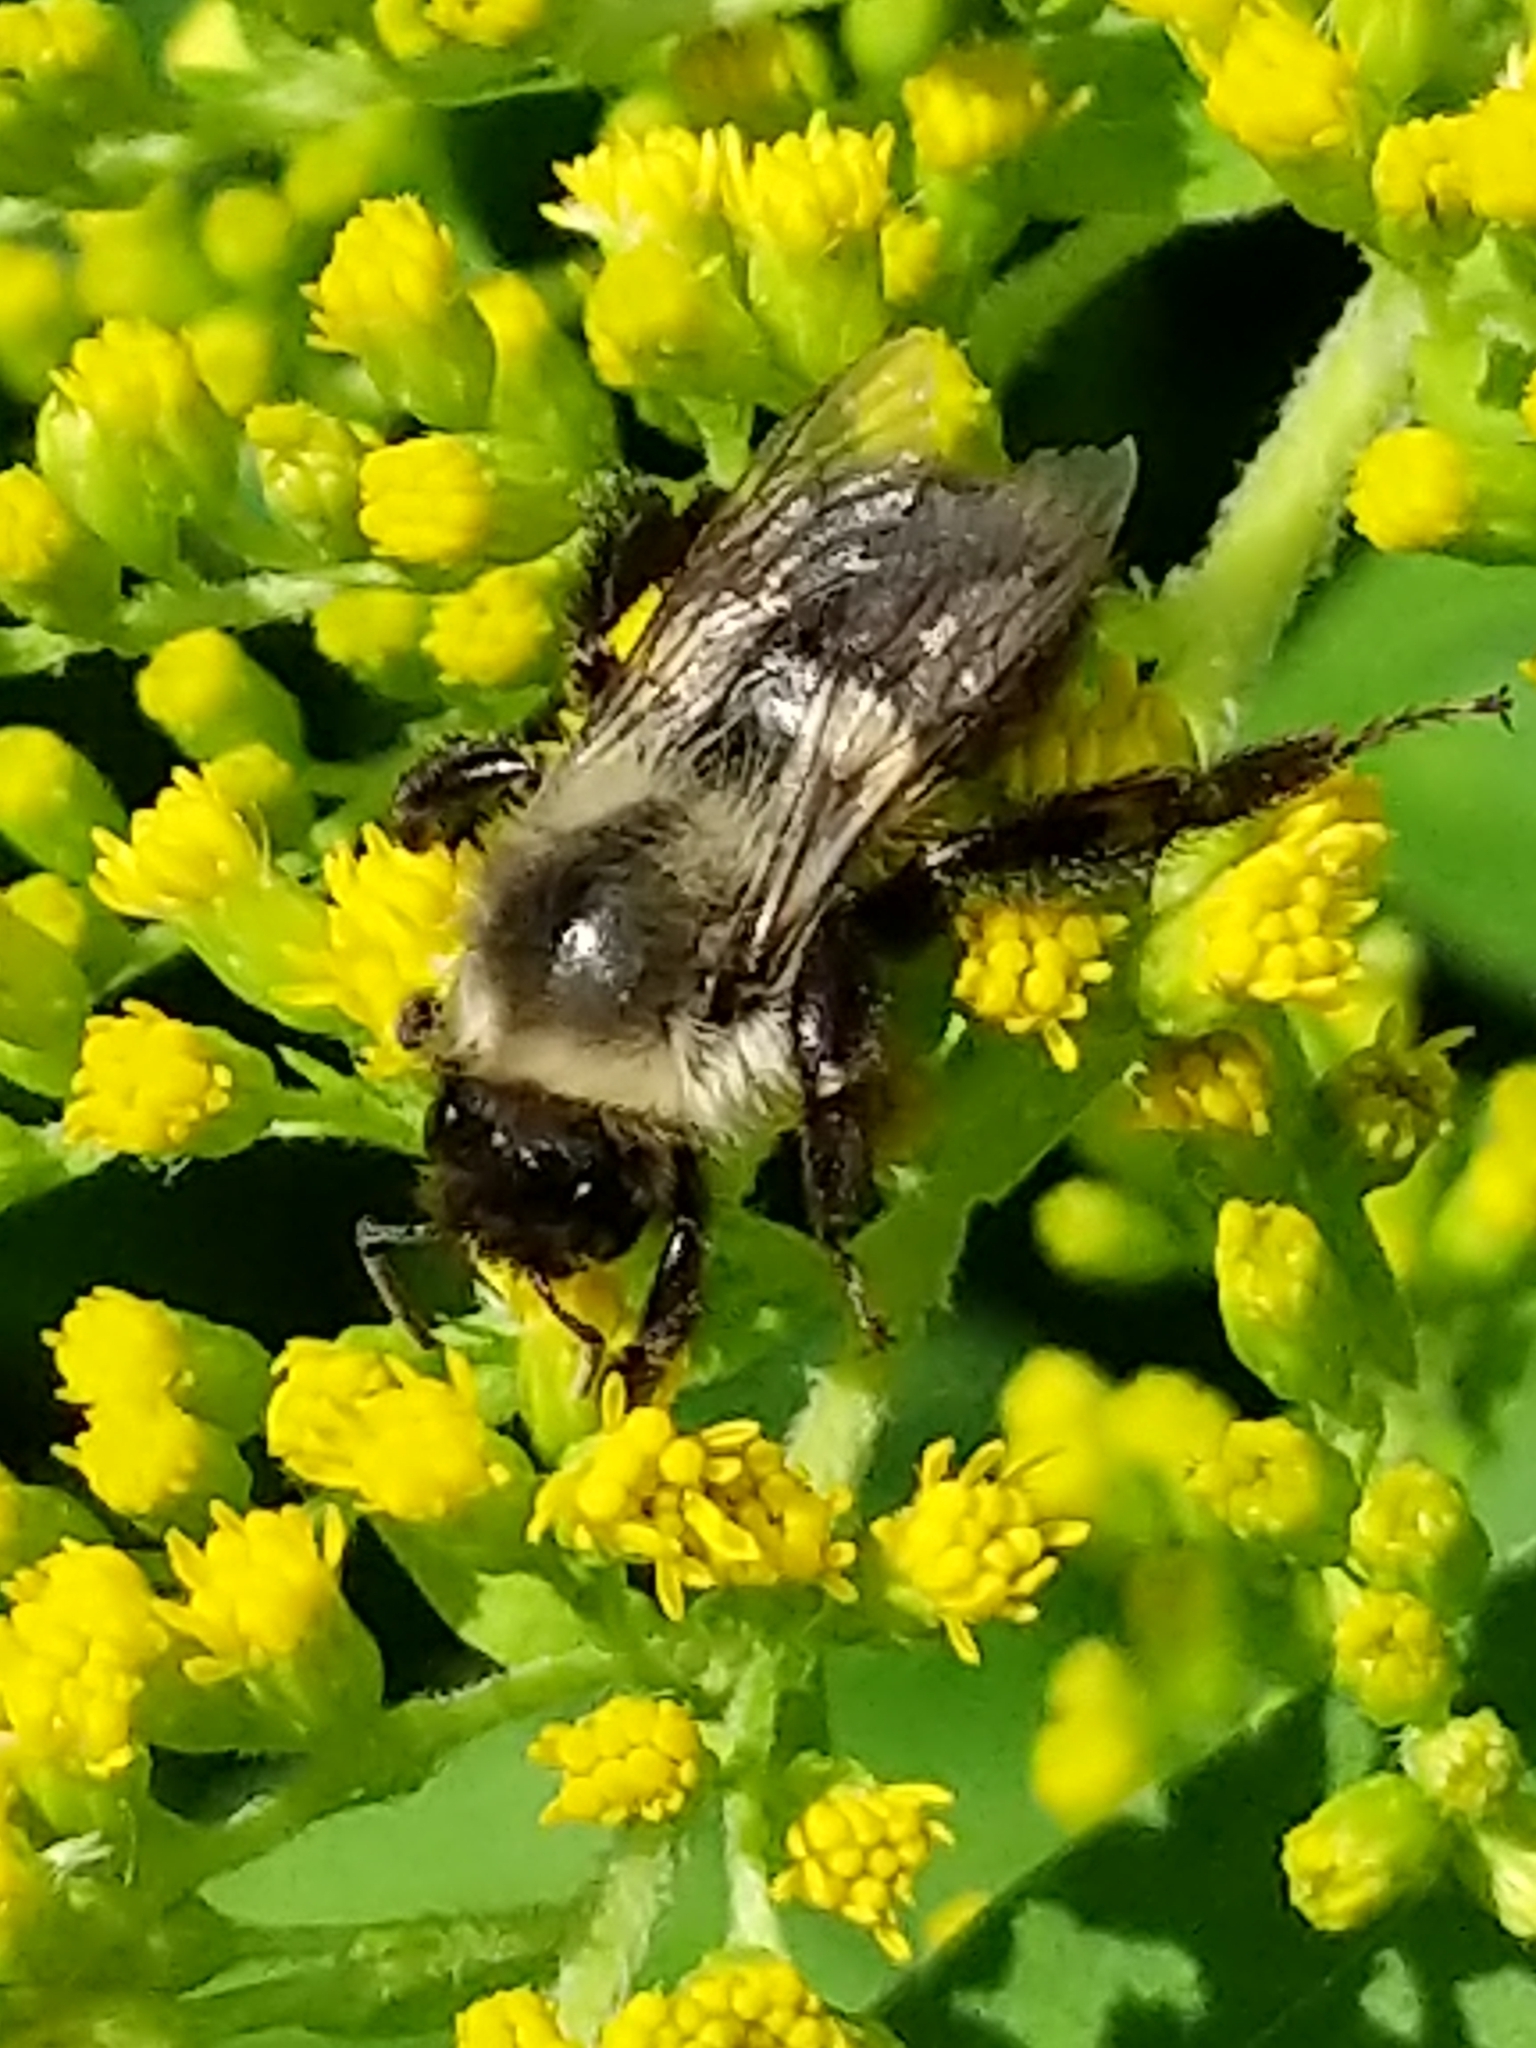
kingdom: Animalia
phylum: Arthropoda
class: Insecta
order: Hymenoptera
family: Apidae
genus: Bombus
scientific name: Bombus impatiens
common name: Common eastern bumble bee
